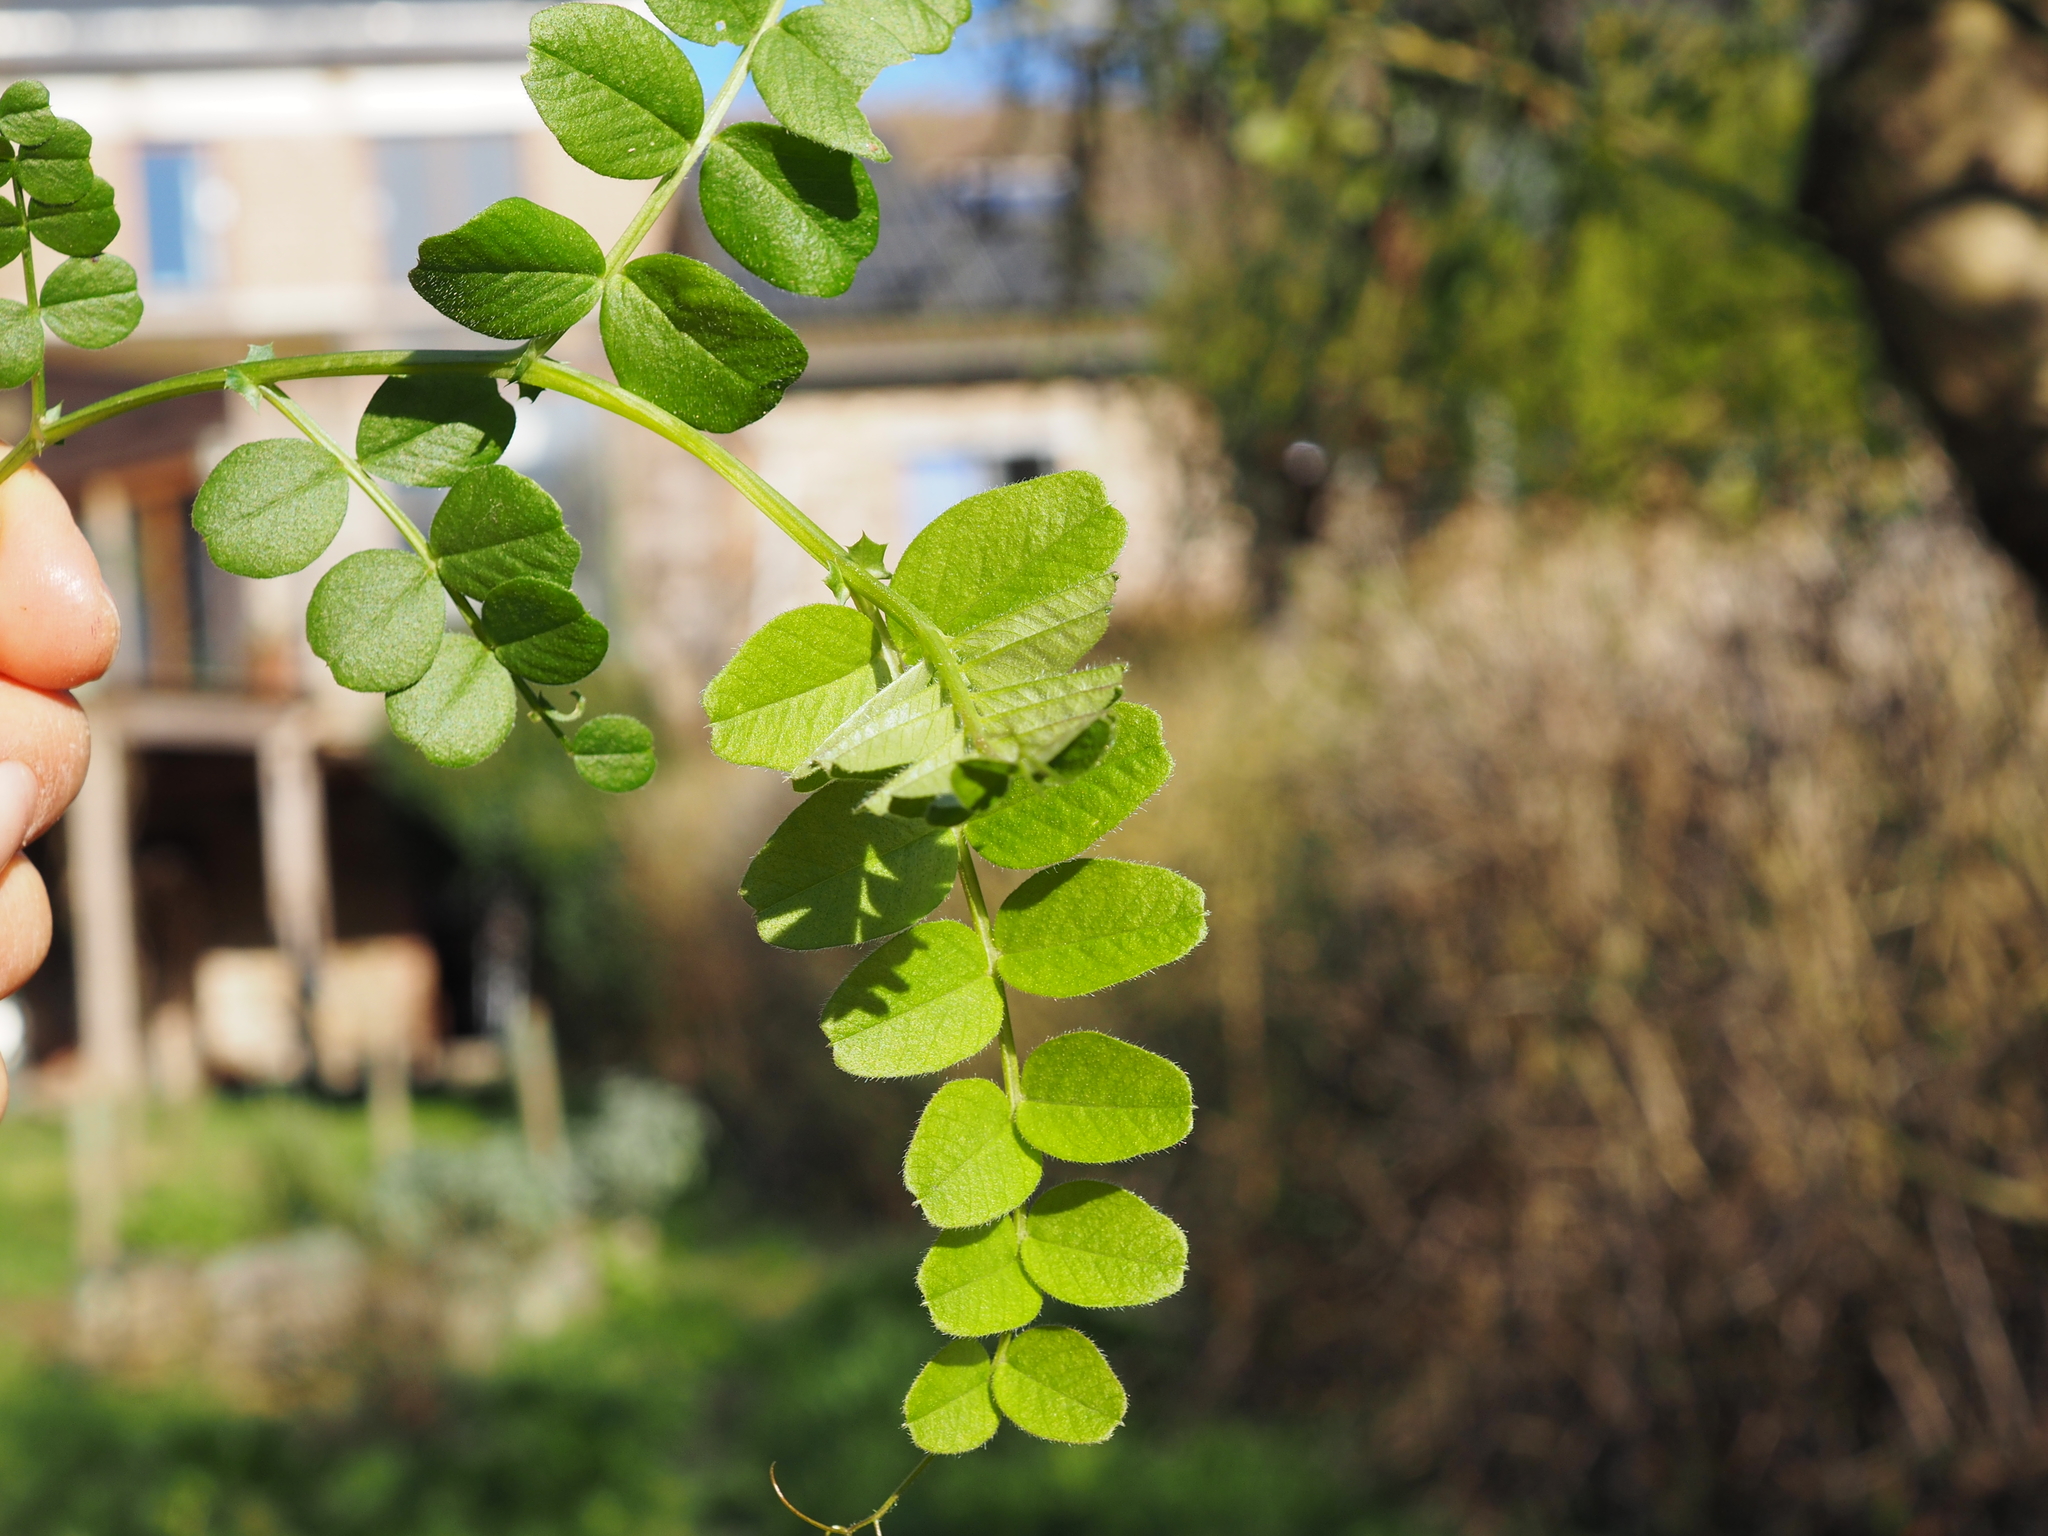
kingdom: Plantae
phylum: Tracheophyta
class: Magnoliopsida
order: Fabales
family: Fabaceae
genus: Vicia
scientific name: Vicia sepium
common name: Bush vetch
